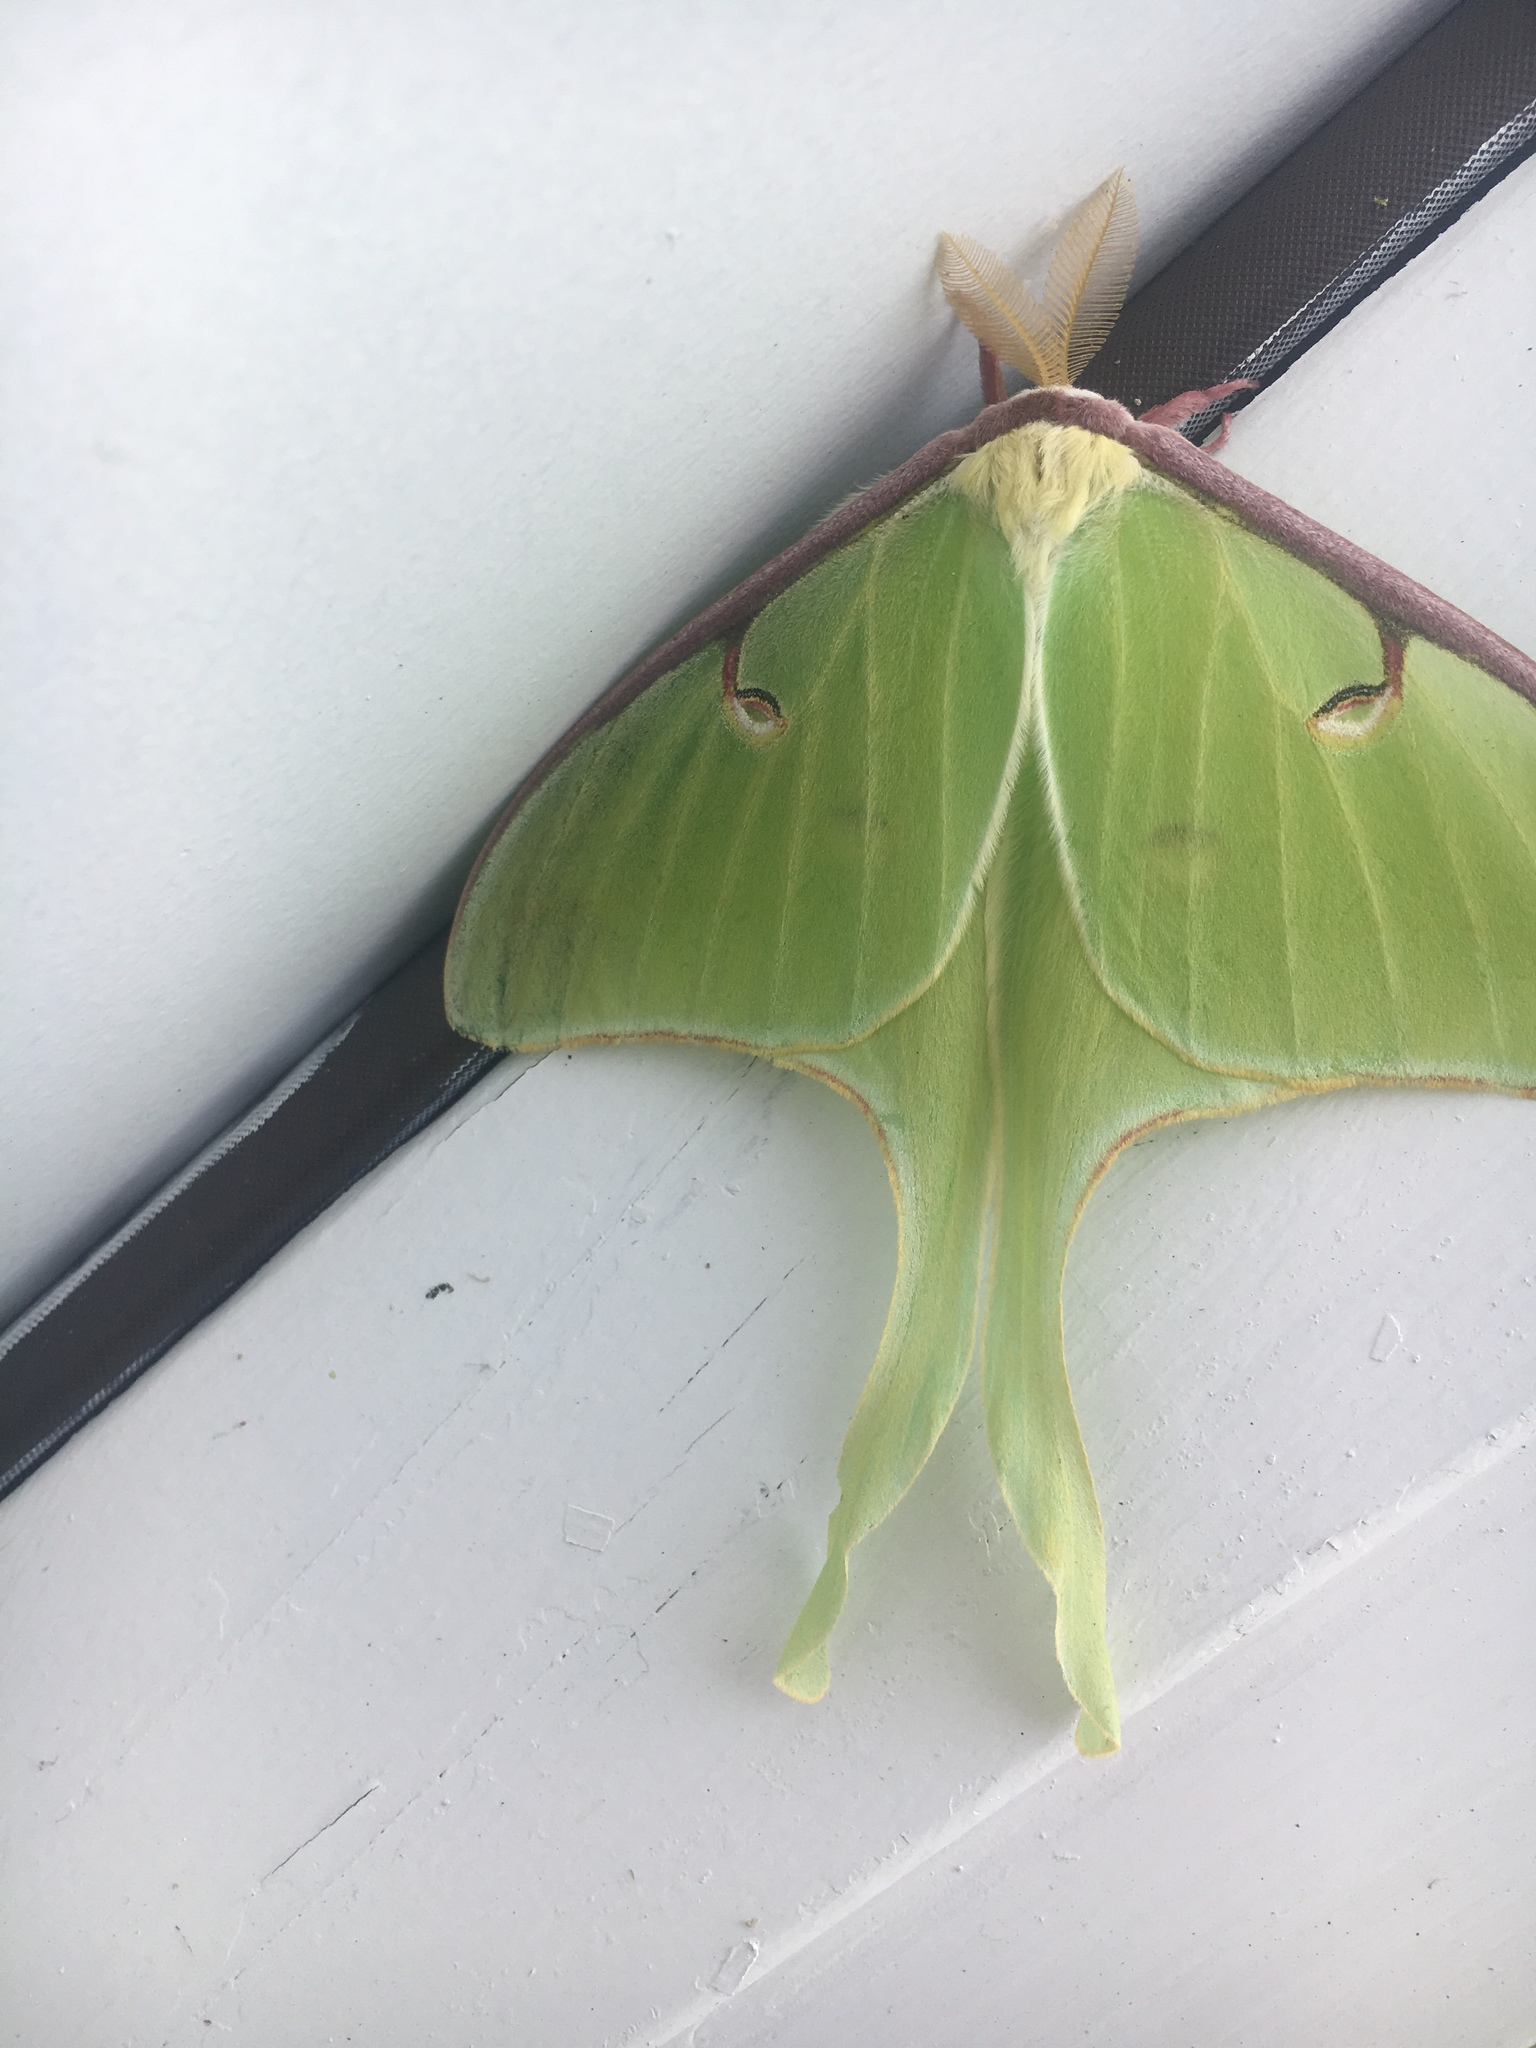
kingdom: Animalia
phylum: Arthropoda
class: Insecta
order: Lepidoptera
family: Saturniidae
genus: Actias
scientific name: Actias luna
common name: Luna moth
